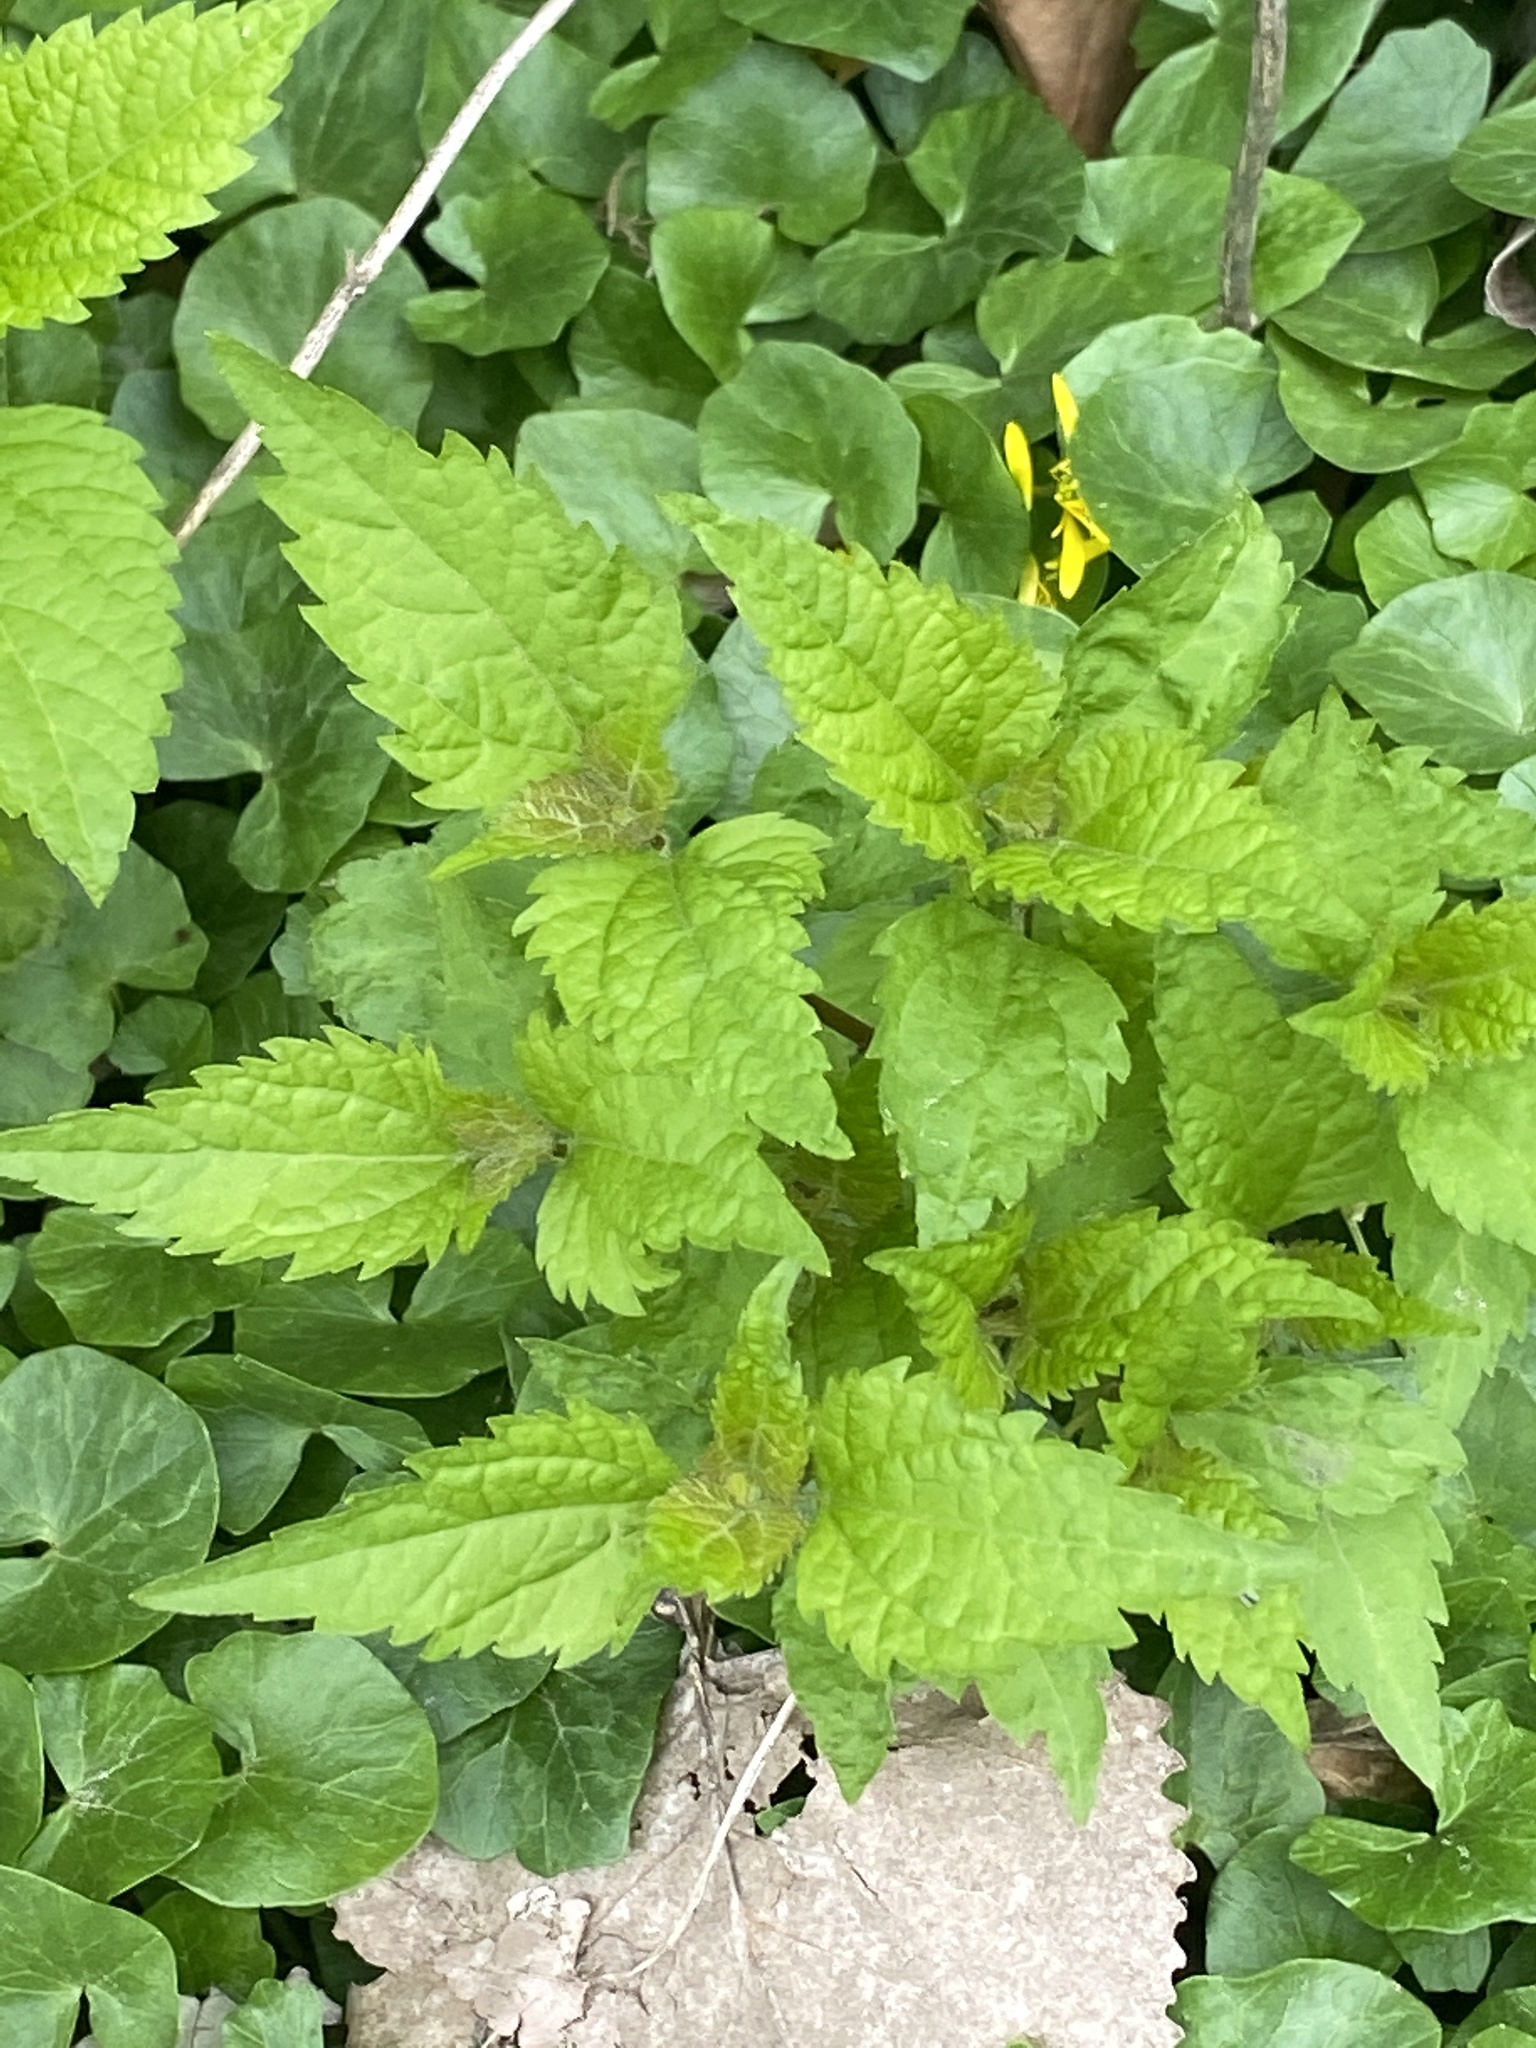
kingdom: Plantae
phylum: Tracheophyta
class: Magnoliopsida
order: Asterales
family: Asteraceae
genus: Ageratina
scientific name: Ageratina altissima
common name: White snakeroot
